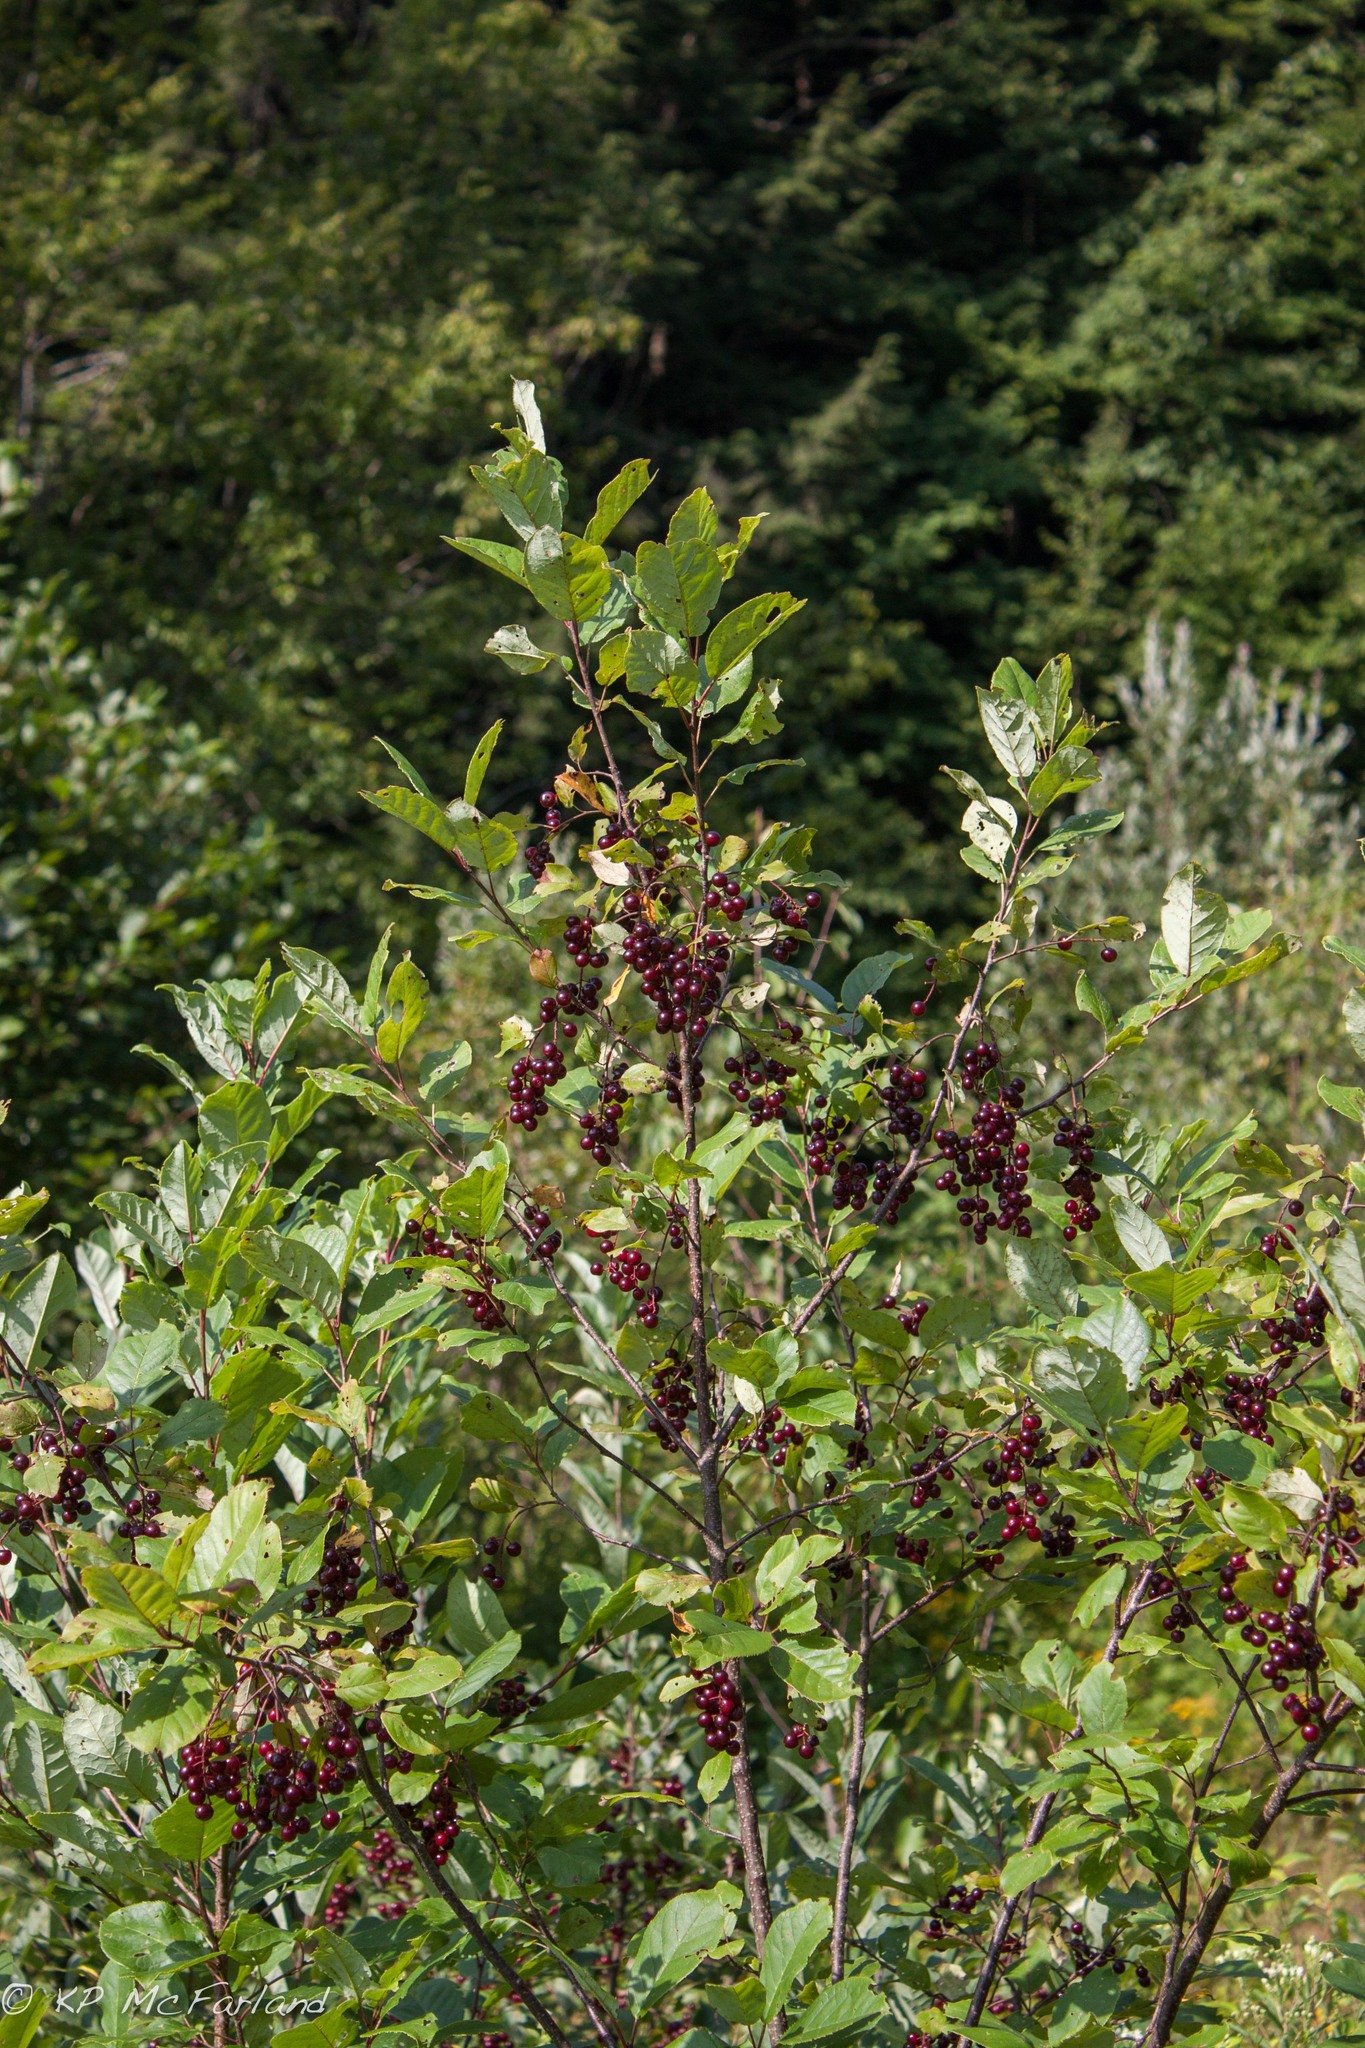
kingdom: Plantae
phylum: Tracheophyta
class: Magnoliopsida
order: Rosales
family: Rosaceae
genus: Prunus
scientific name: Prunus virginiana
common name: Chokecherry
